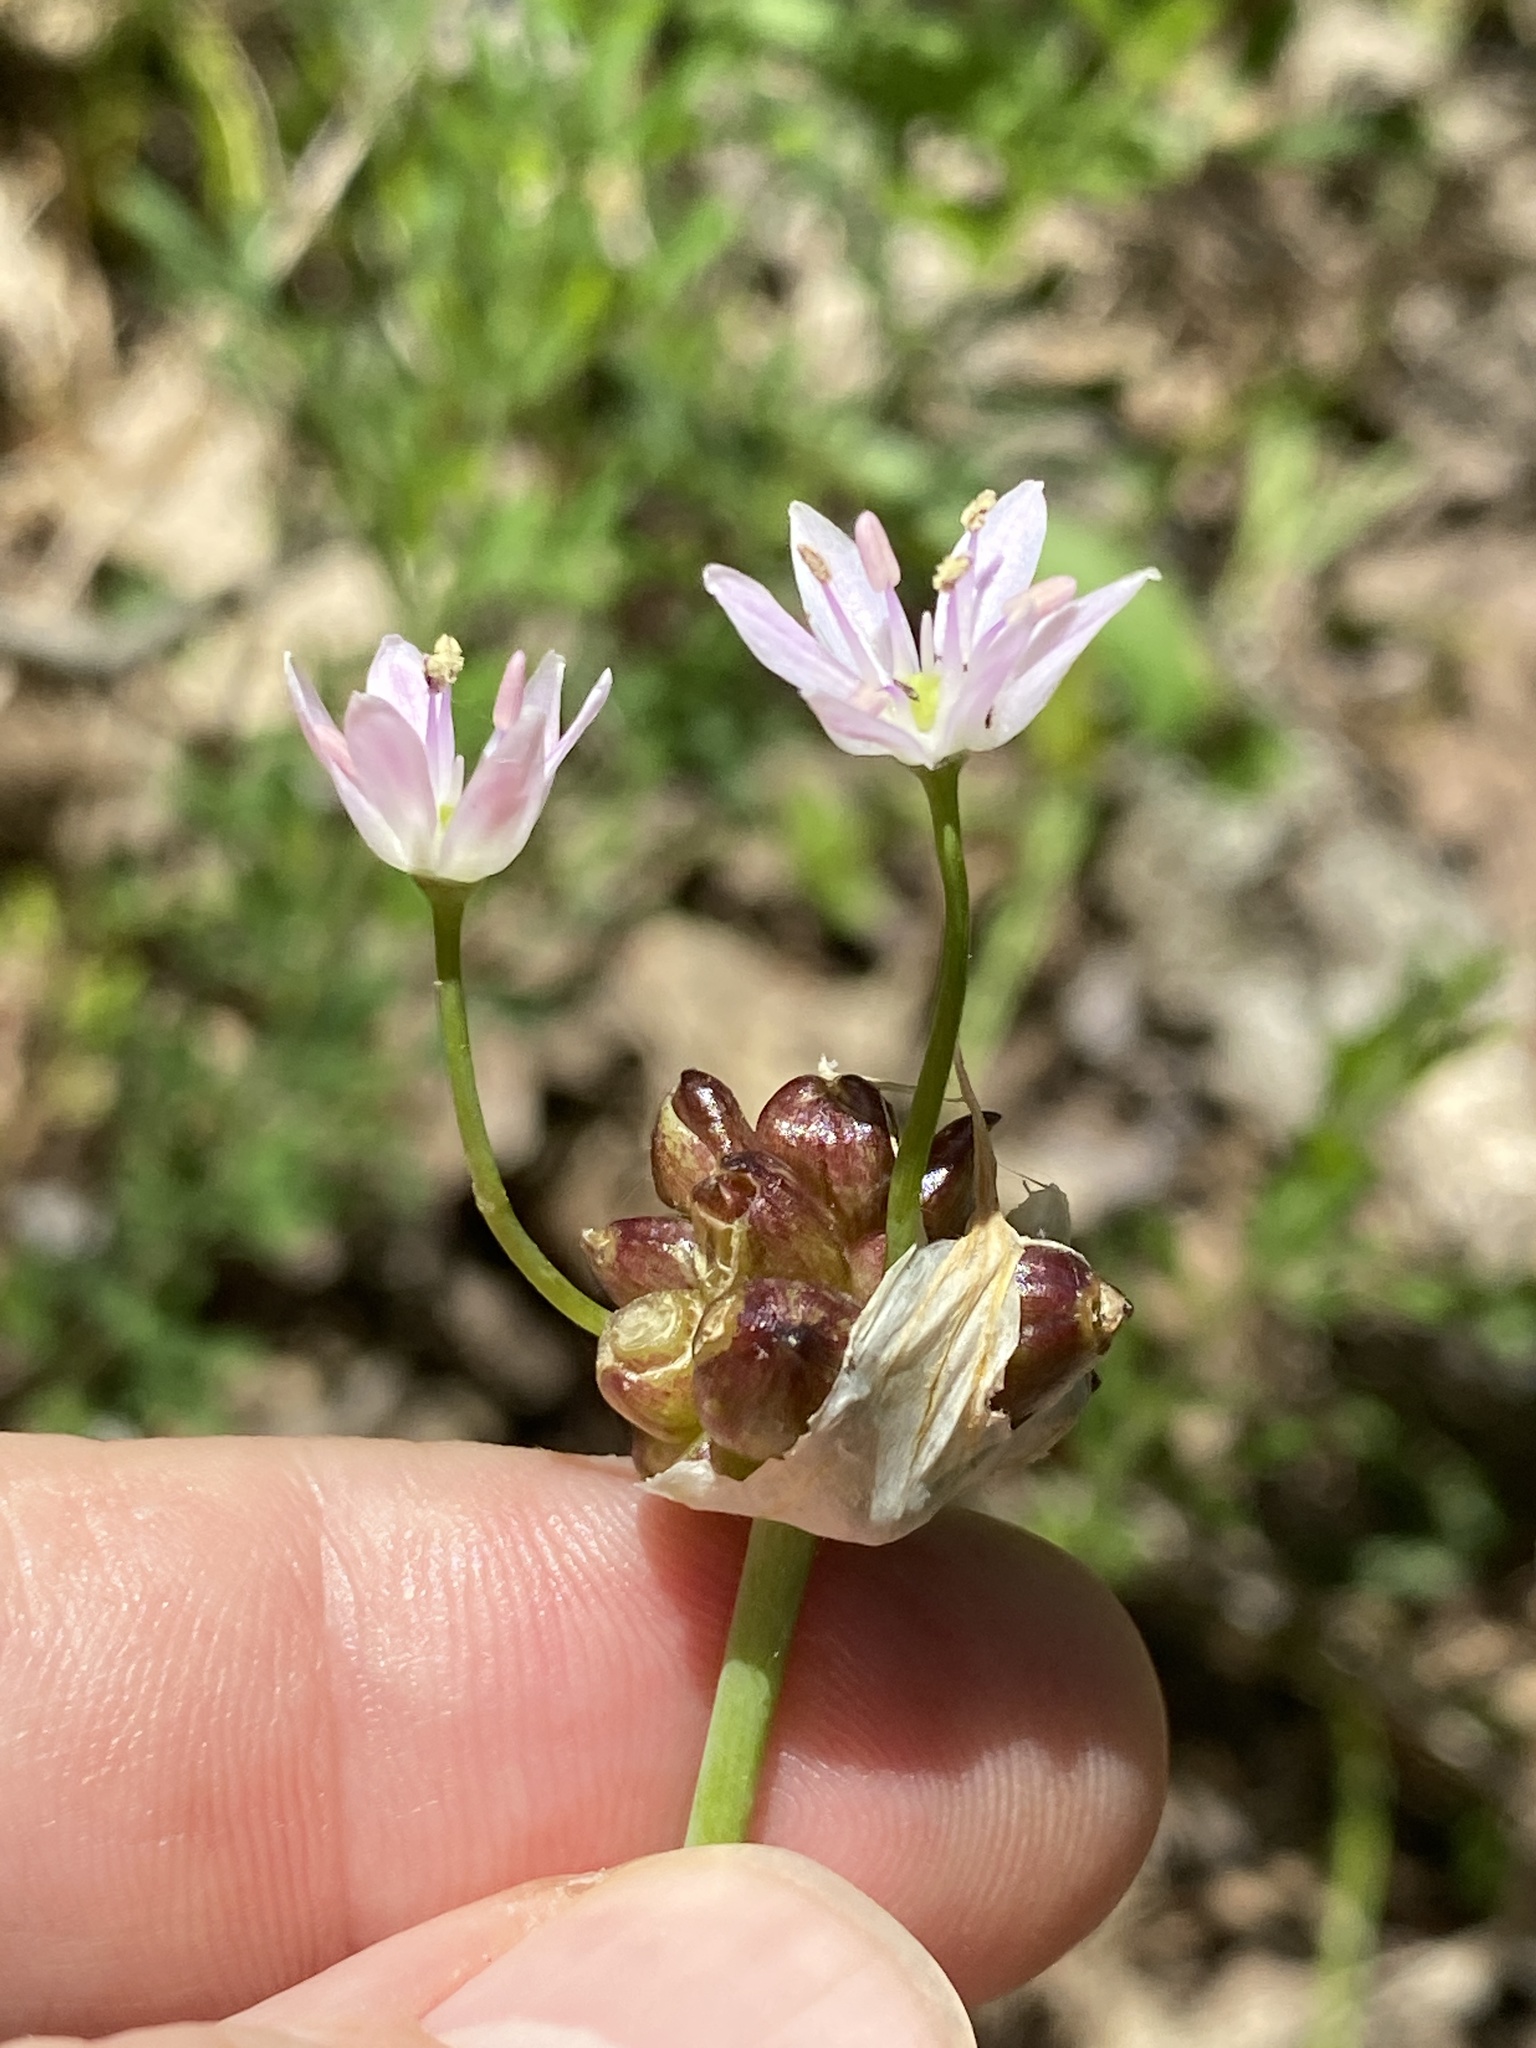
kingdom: Plantae
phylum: Tracheophyta
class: Liliopsida
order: Asparagales
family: Amaryllidaceae
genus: Allium
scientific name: Allium canadense
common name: Meadow garlic
